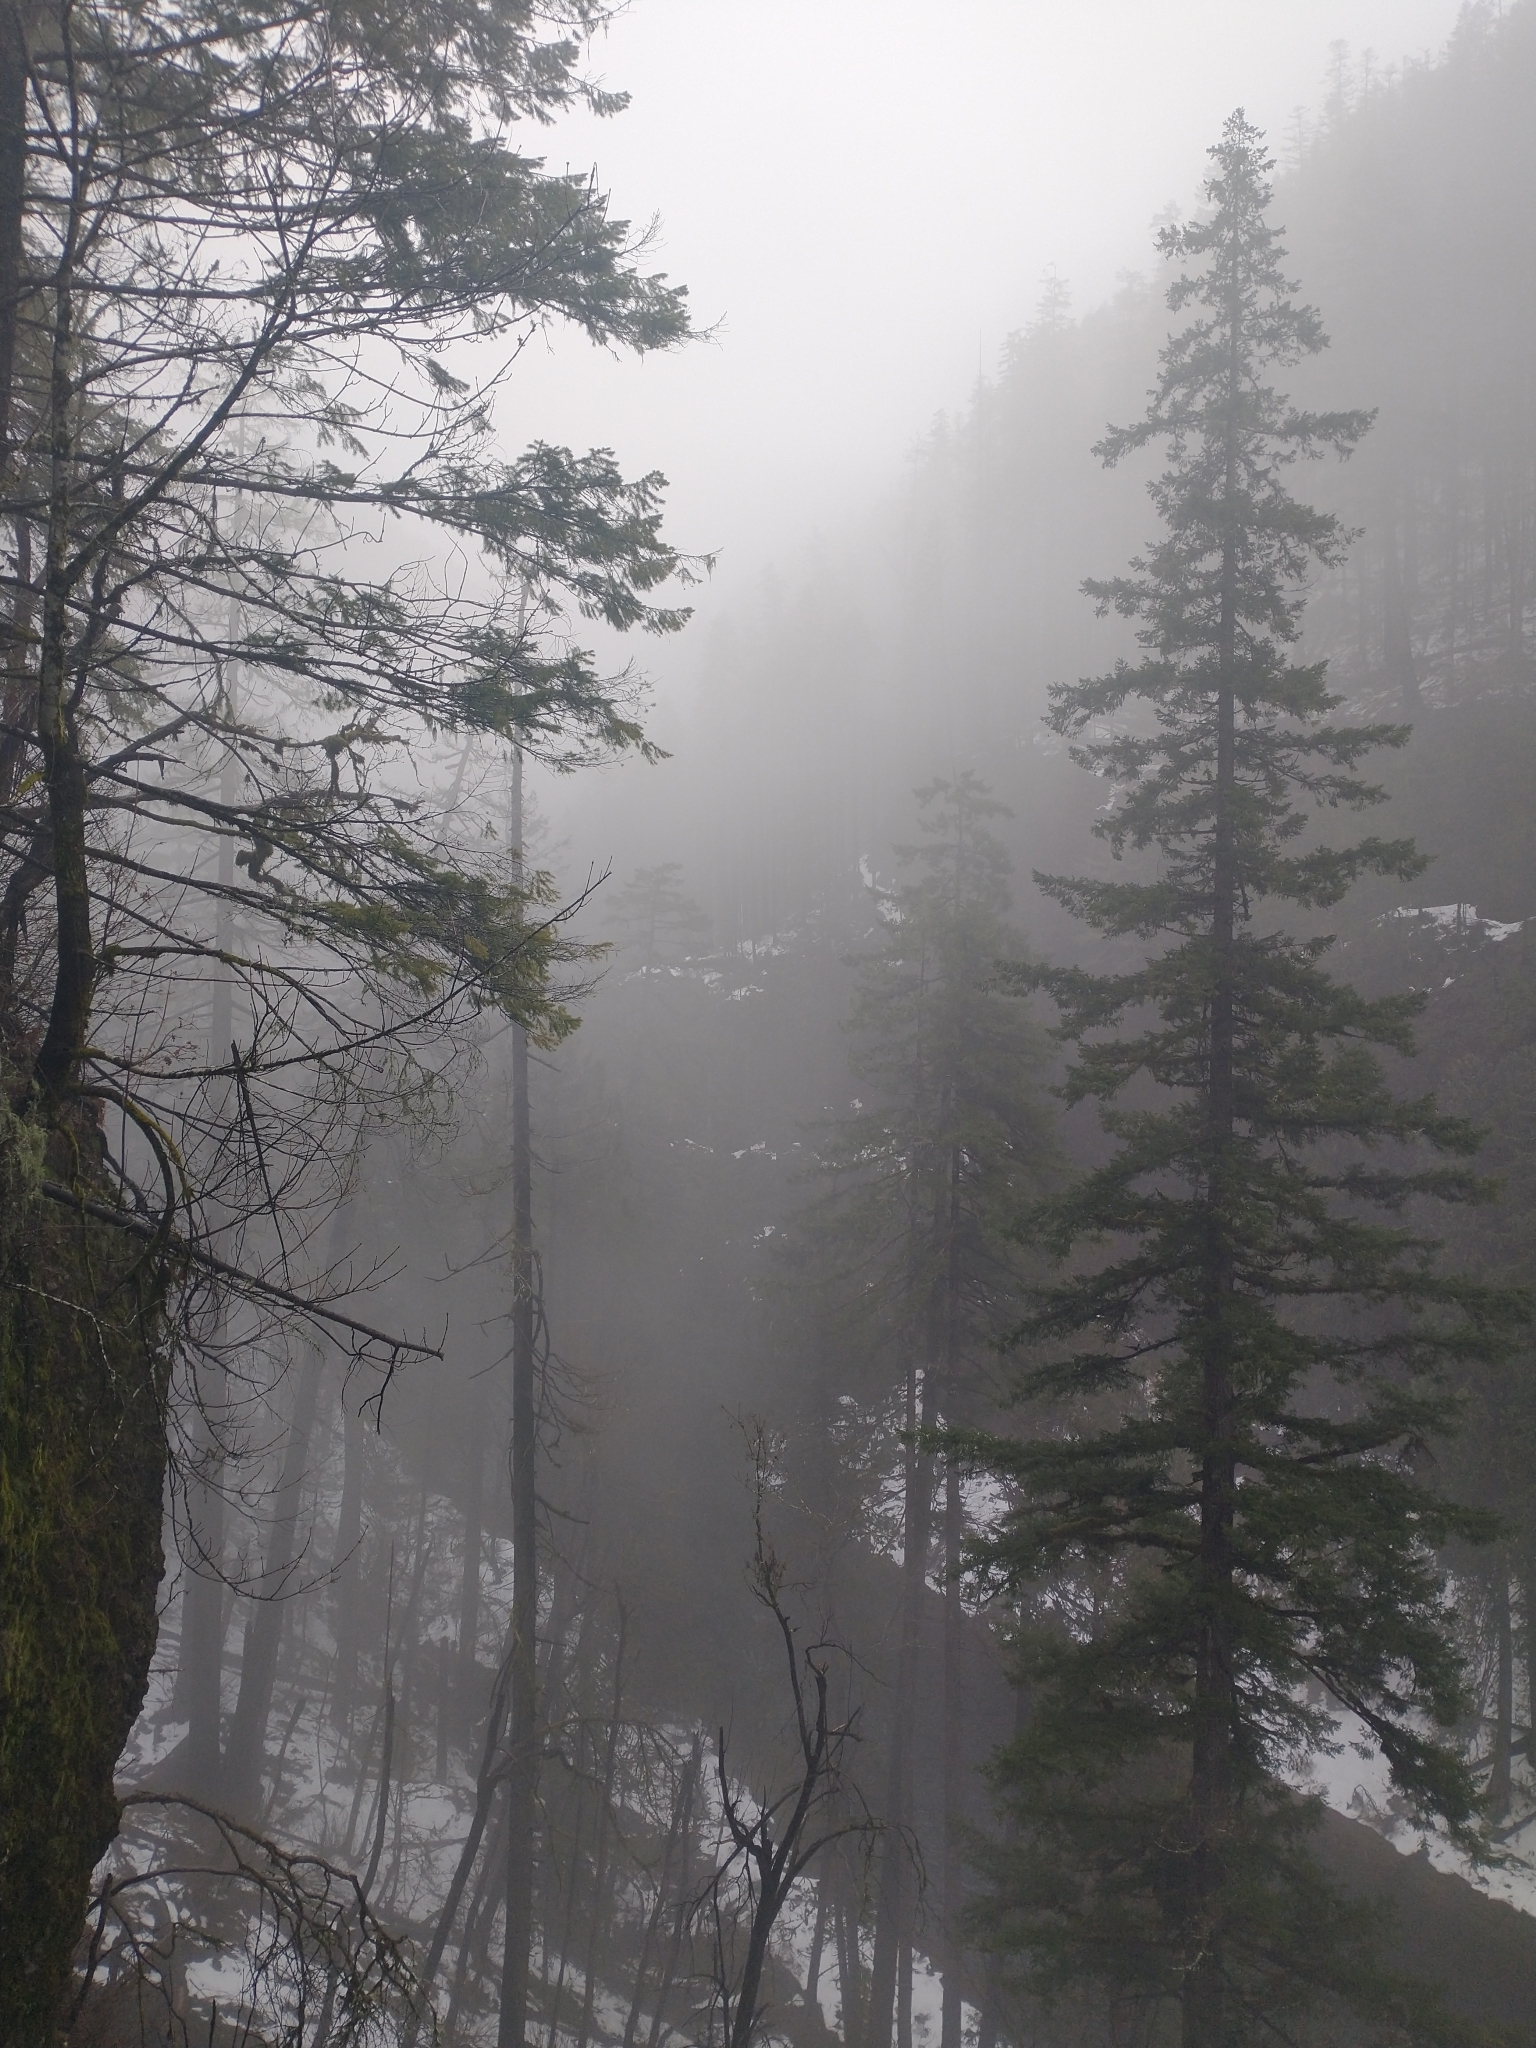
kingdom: Plantae
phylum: Tracheophyta
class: Pinopsida
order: Pinales
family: Pinaceae
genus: Pseudotsuga
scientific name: Pseudotsuga menziesii
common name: Douglas fir
